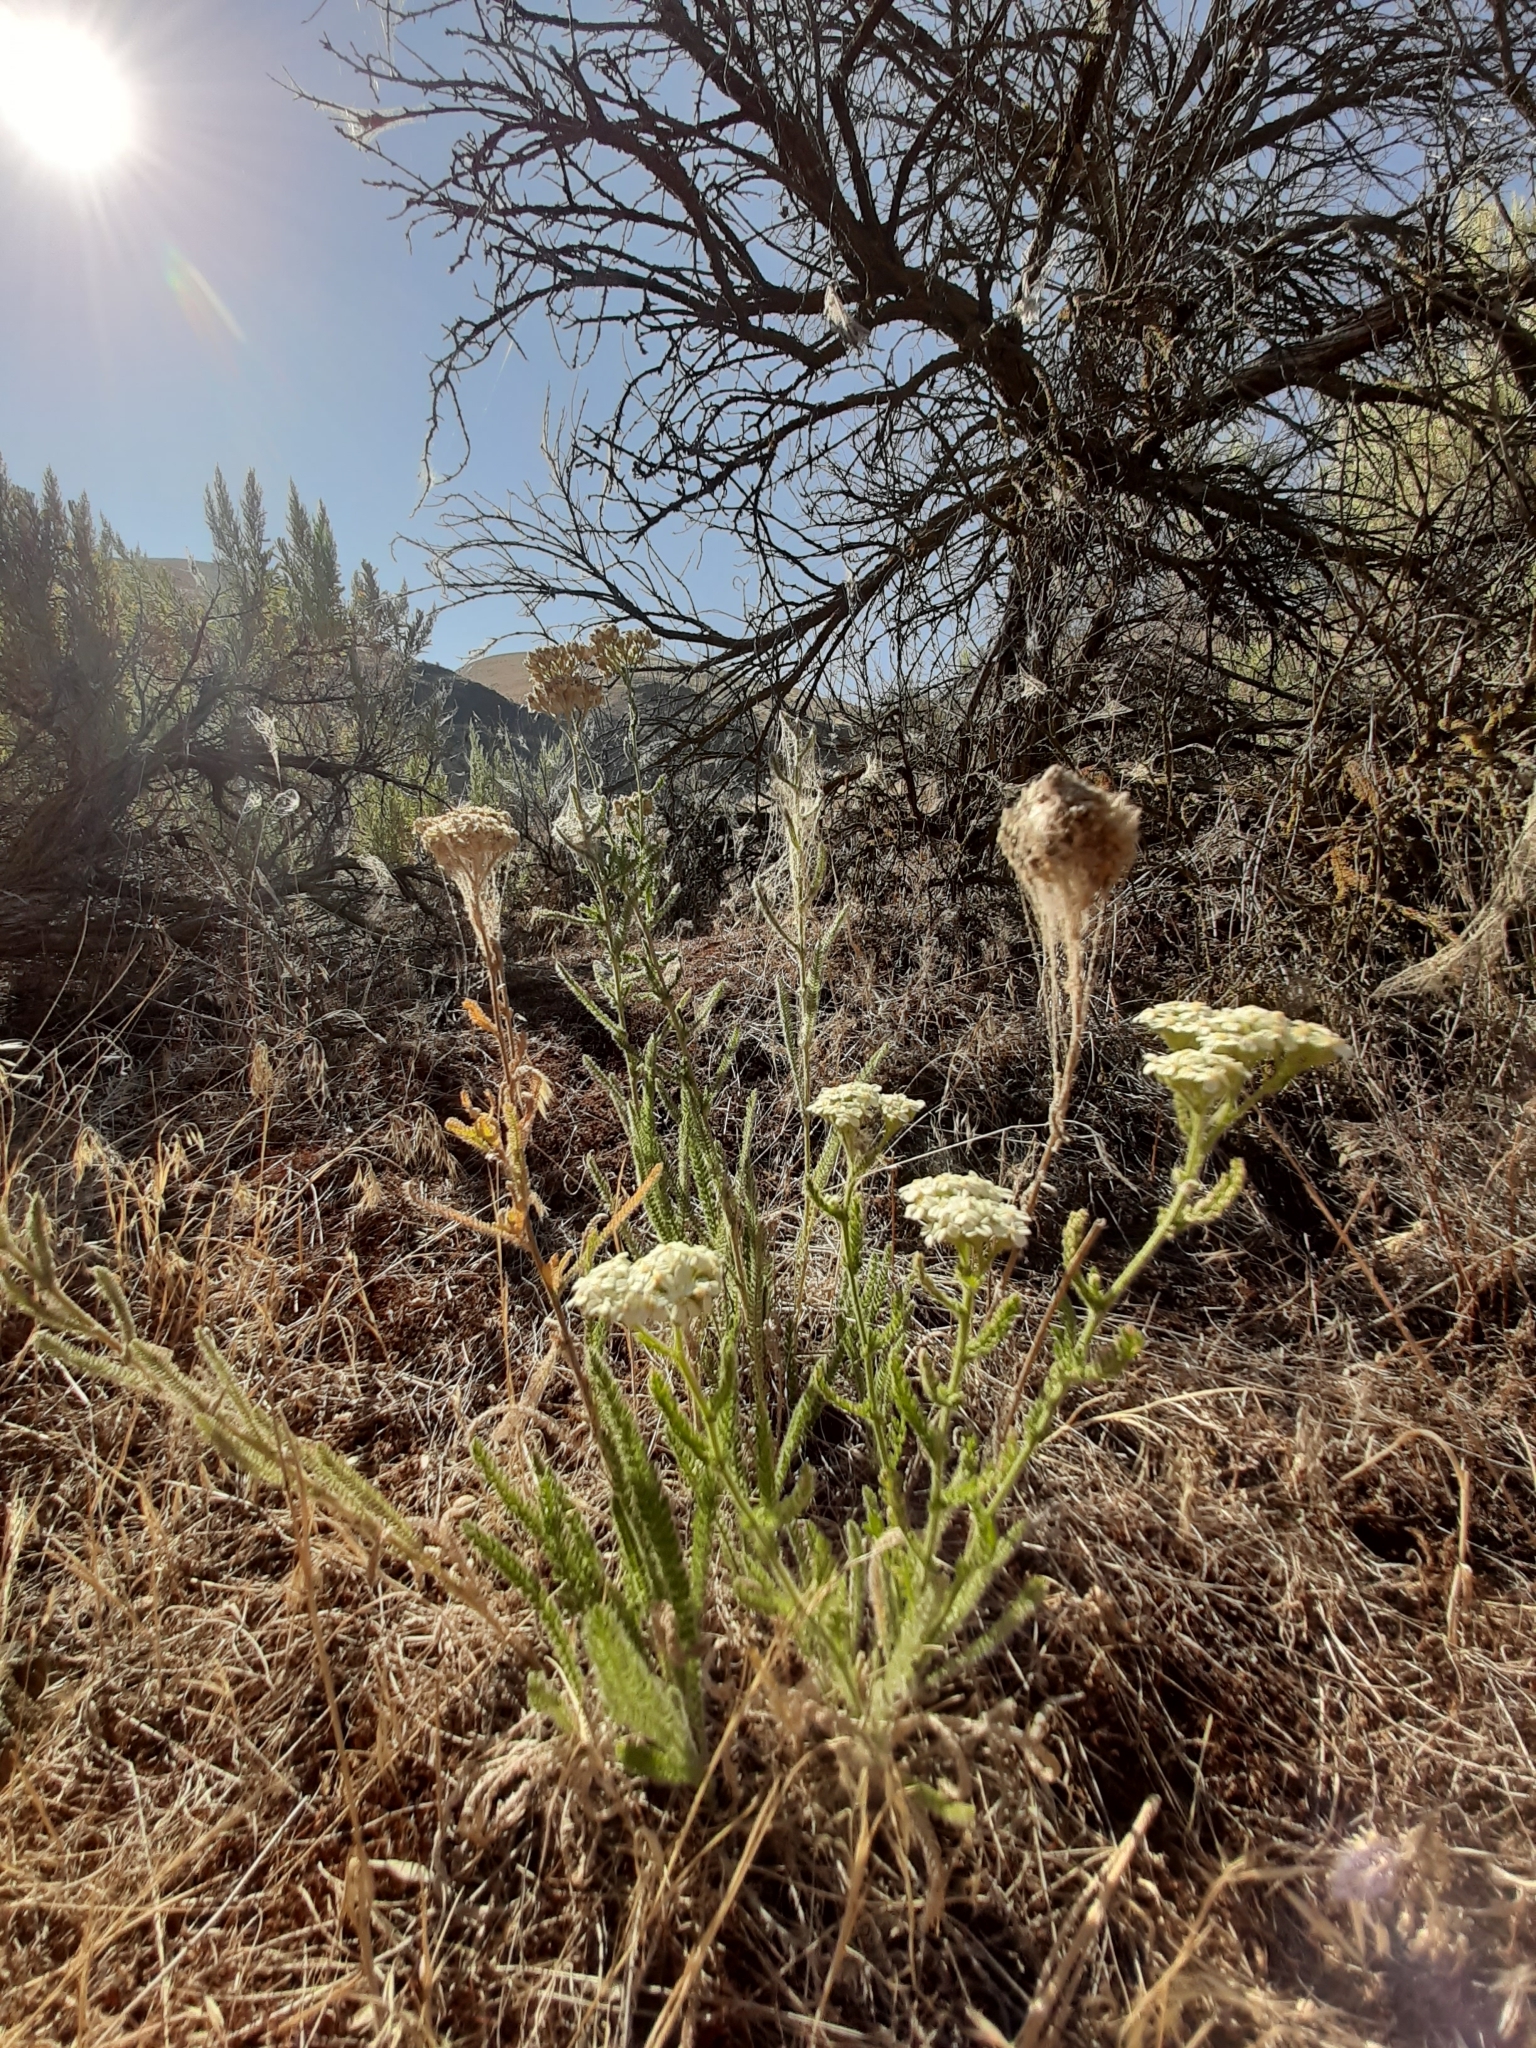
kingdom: Plantae
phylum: Tracheophyta
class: Magnoliopsida
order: Asterales
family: Asteraceae
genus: Achillea
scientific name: Achillea millefolium
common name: Yarrow
